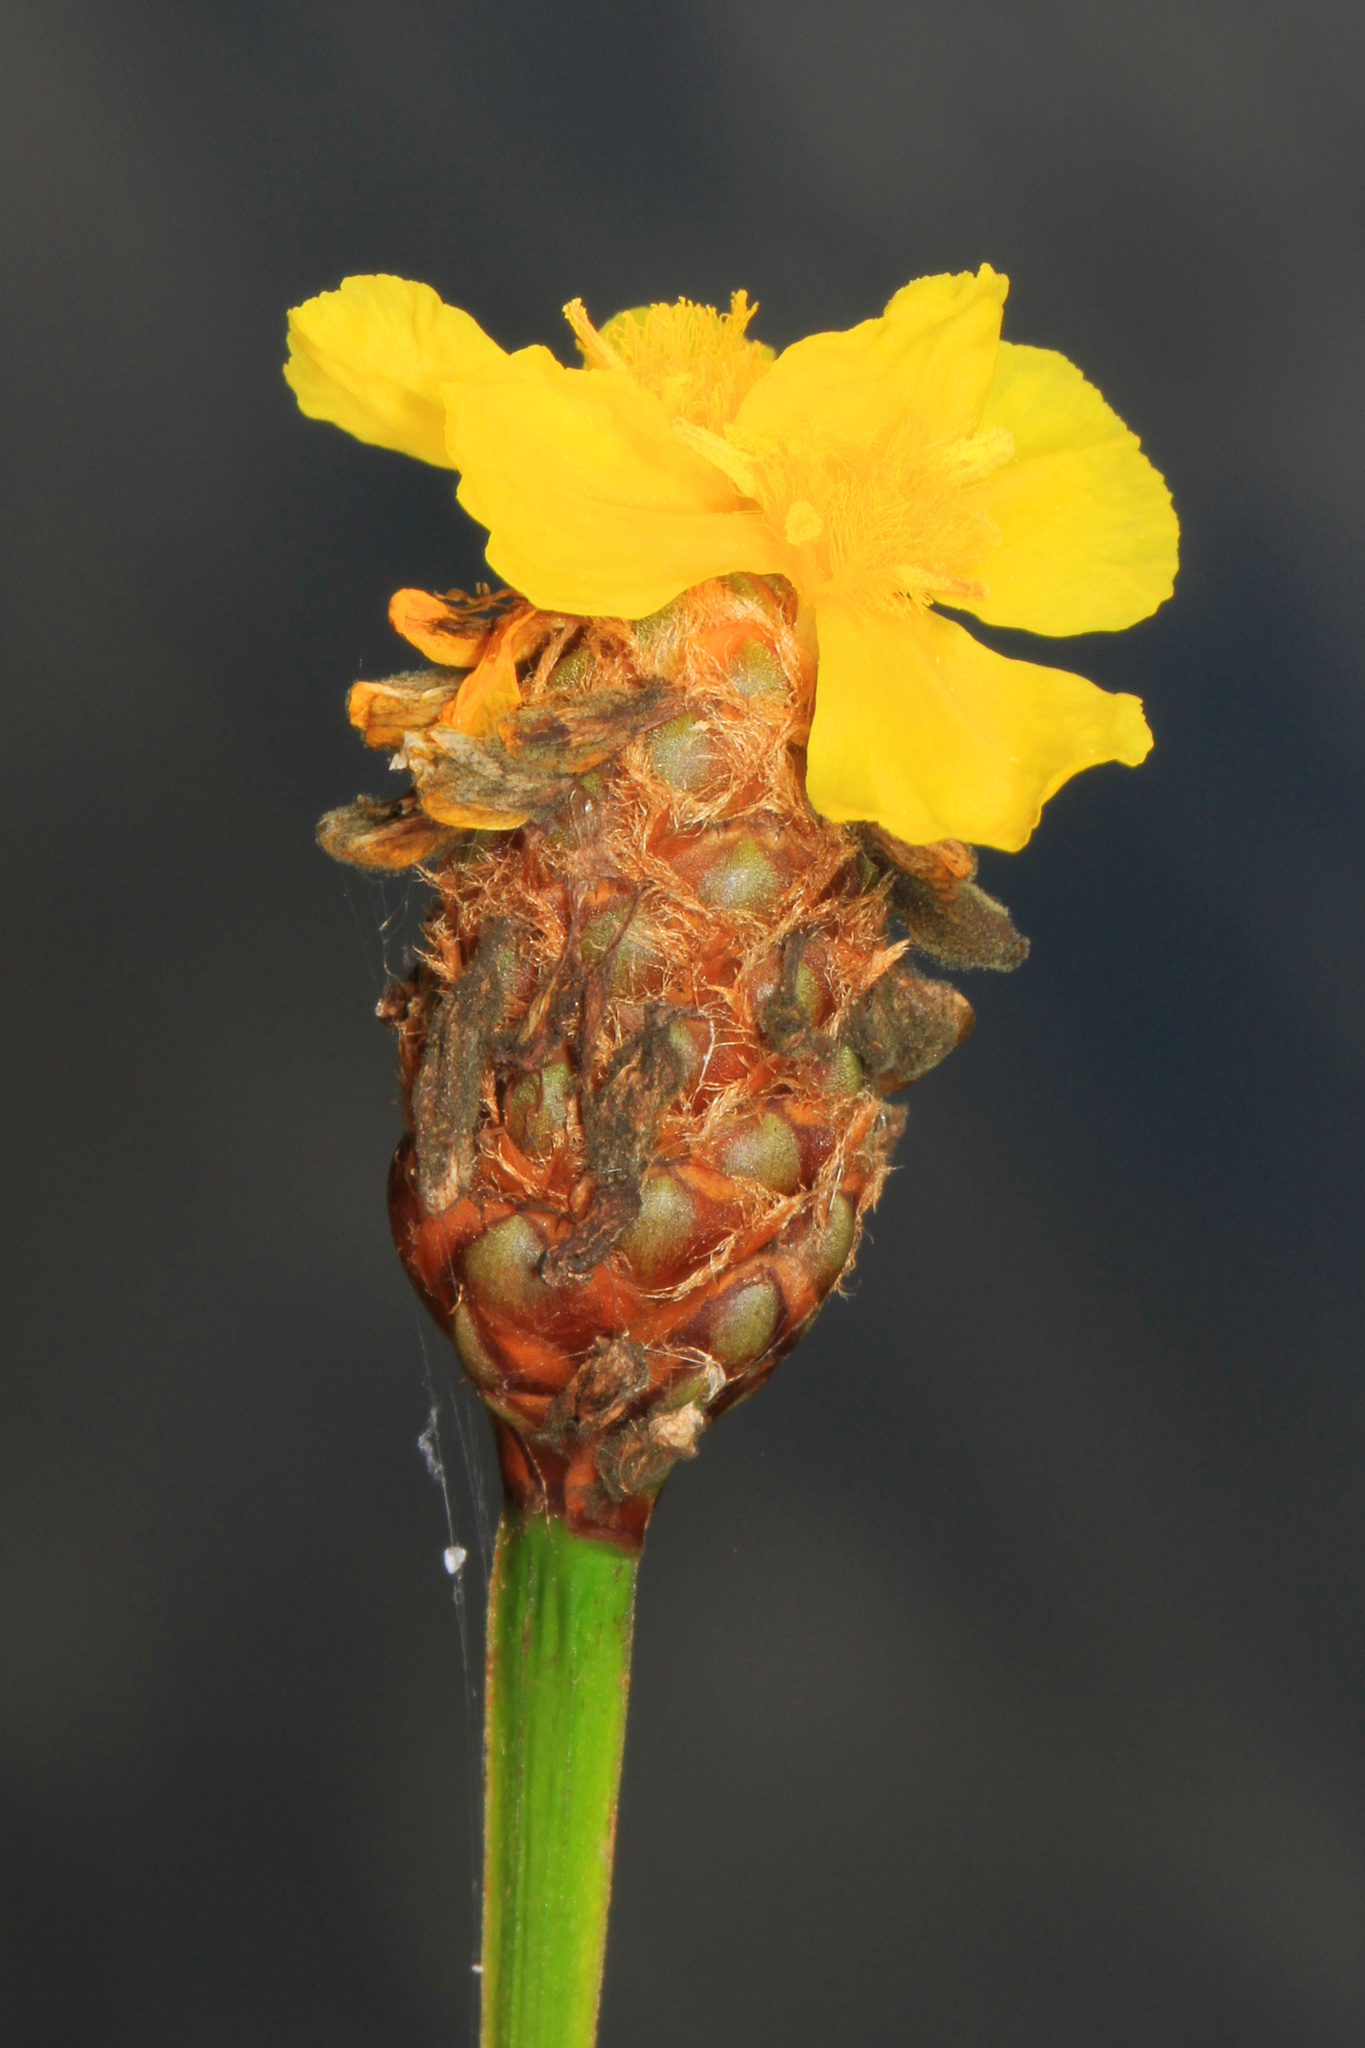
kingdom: Plantae
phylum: Tracheophyta
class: Liliopsida
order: Poales
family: Xyridaceae
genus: Xyris
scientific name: Xyris fimbriata
